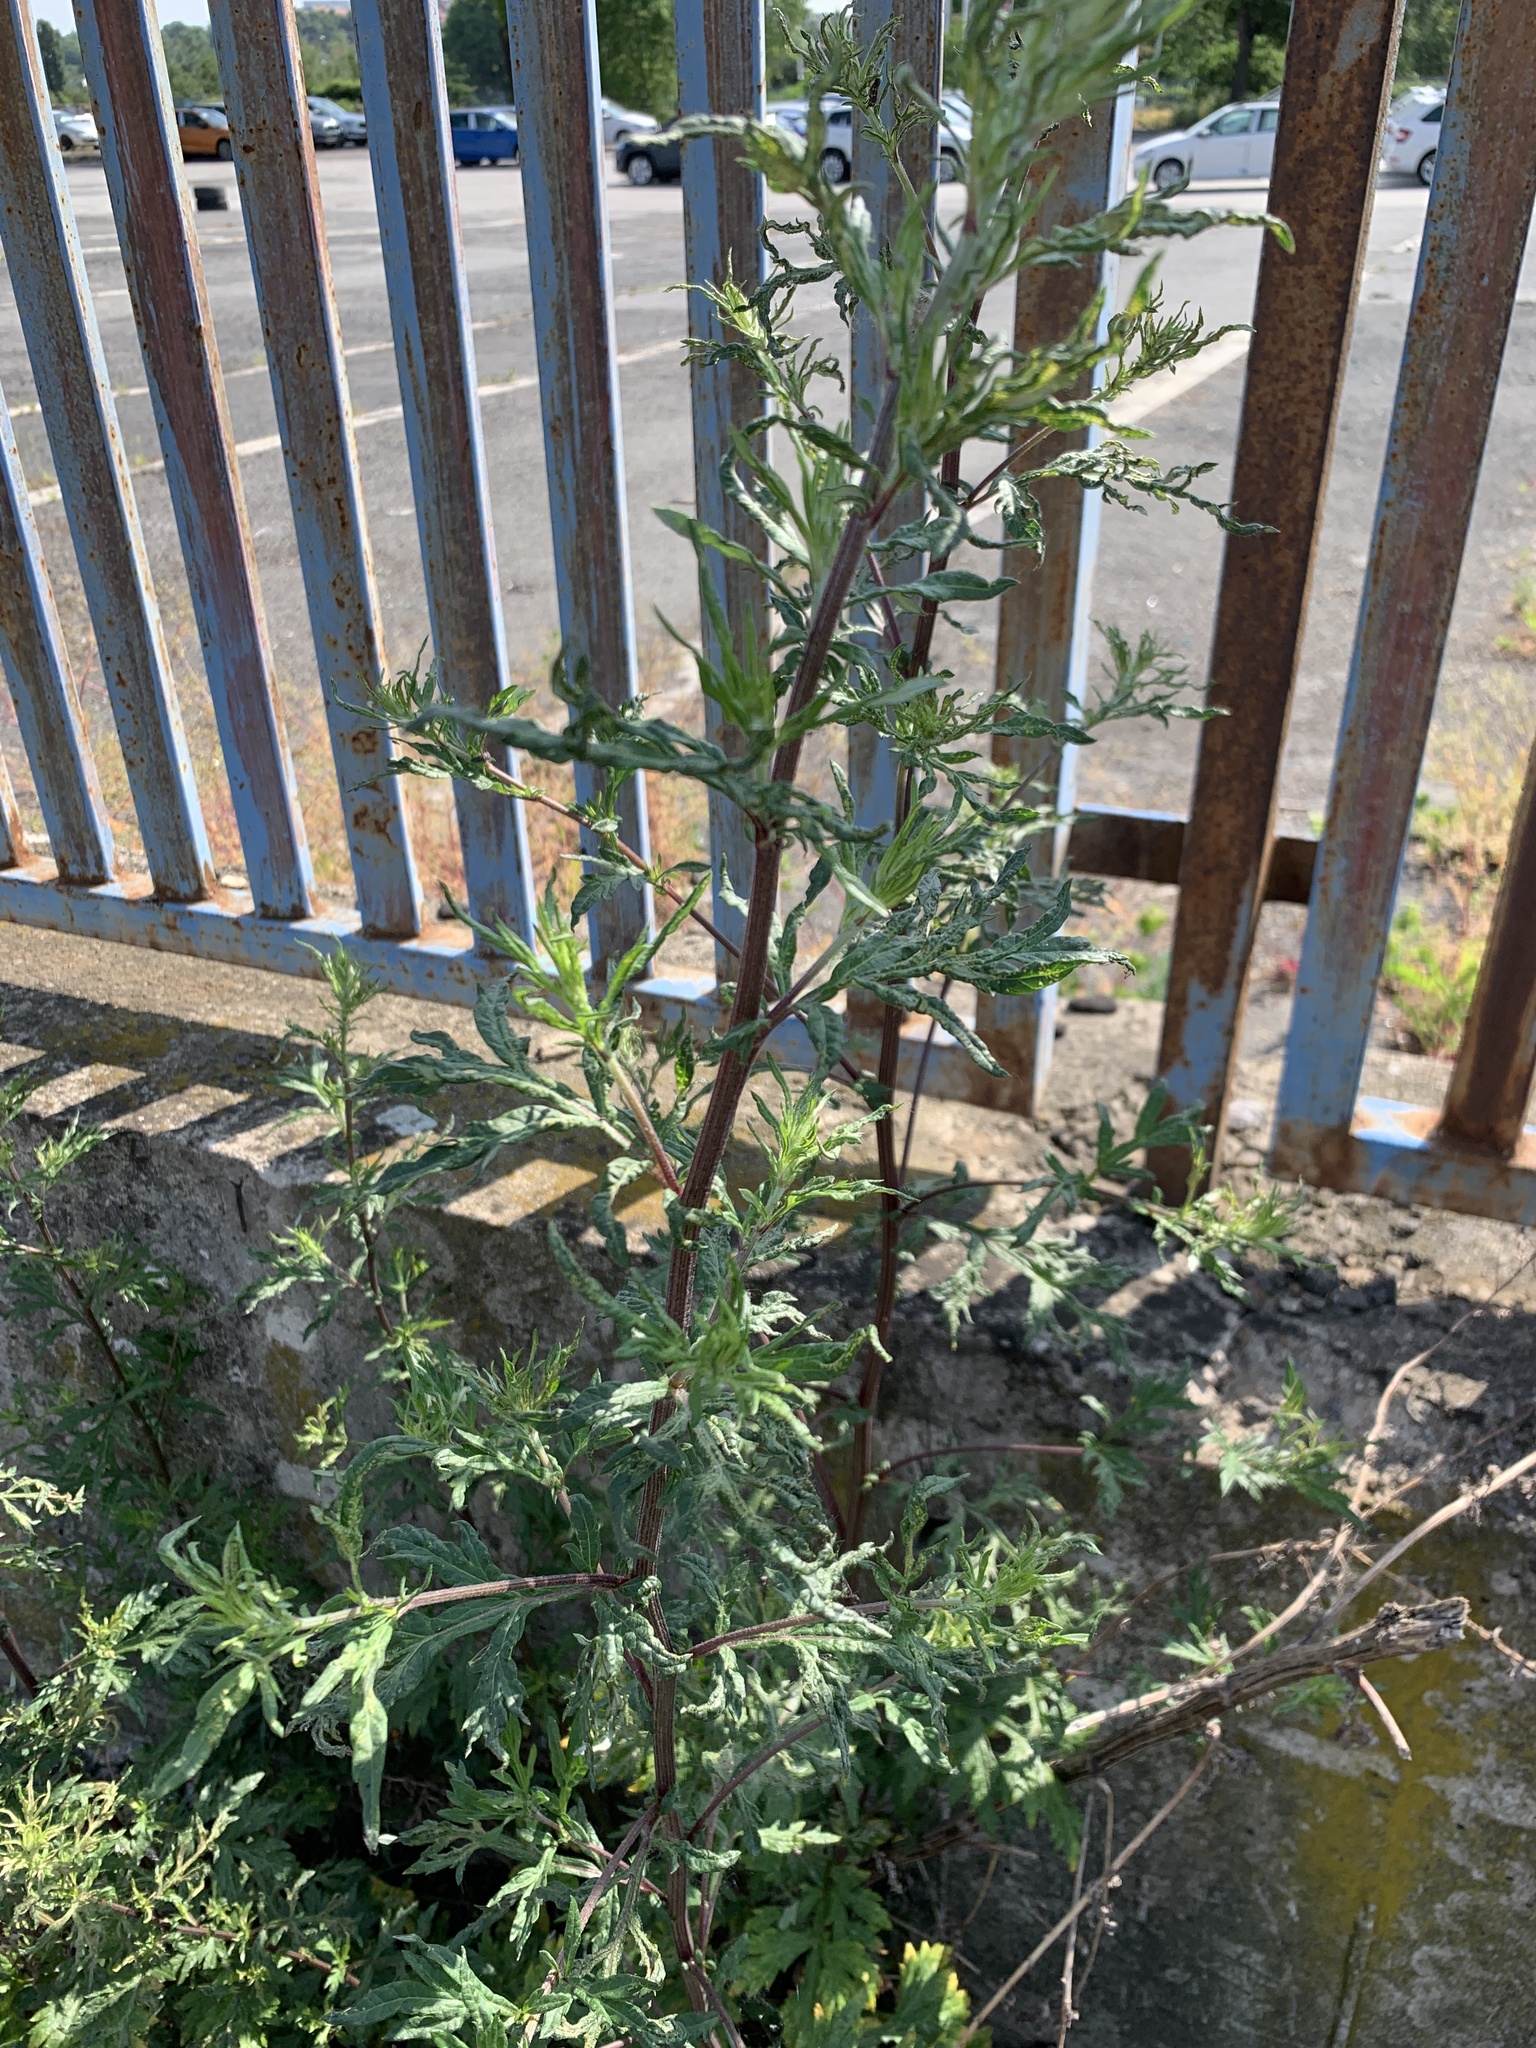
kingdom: Plantae
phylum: Tracheophyta
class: Magnoliopsida
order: Asterales
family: Asteraceae
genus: Artemisia
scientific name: Artemisia vulgaris
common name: Mugwort
